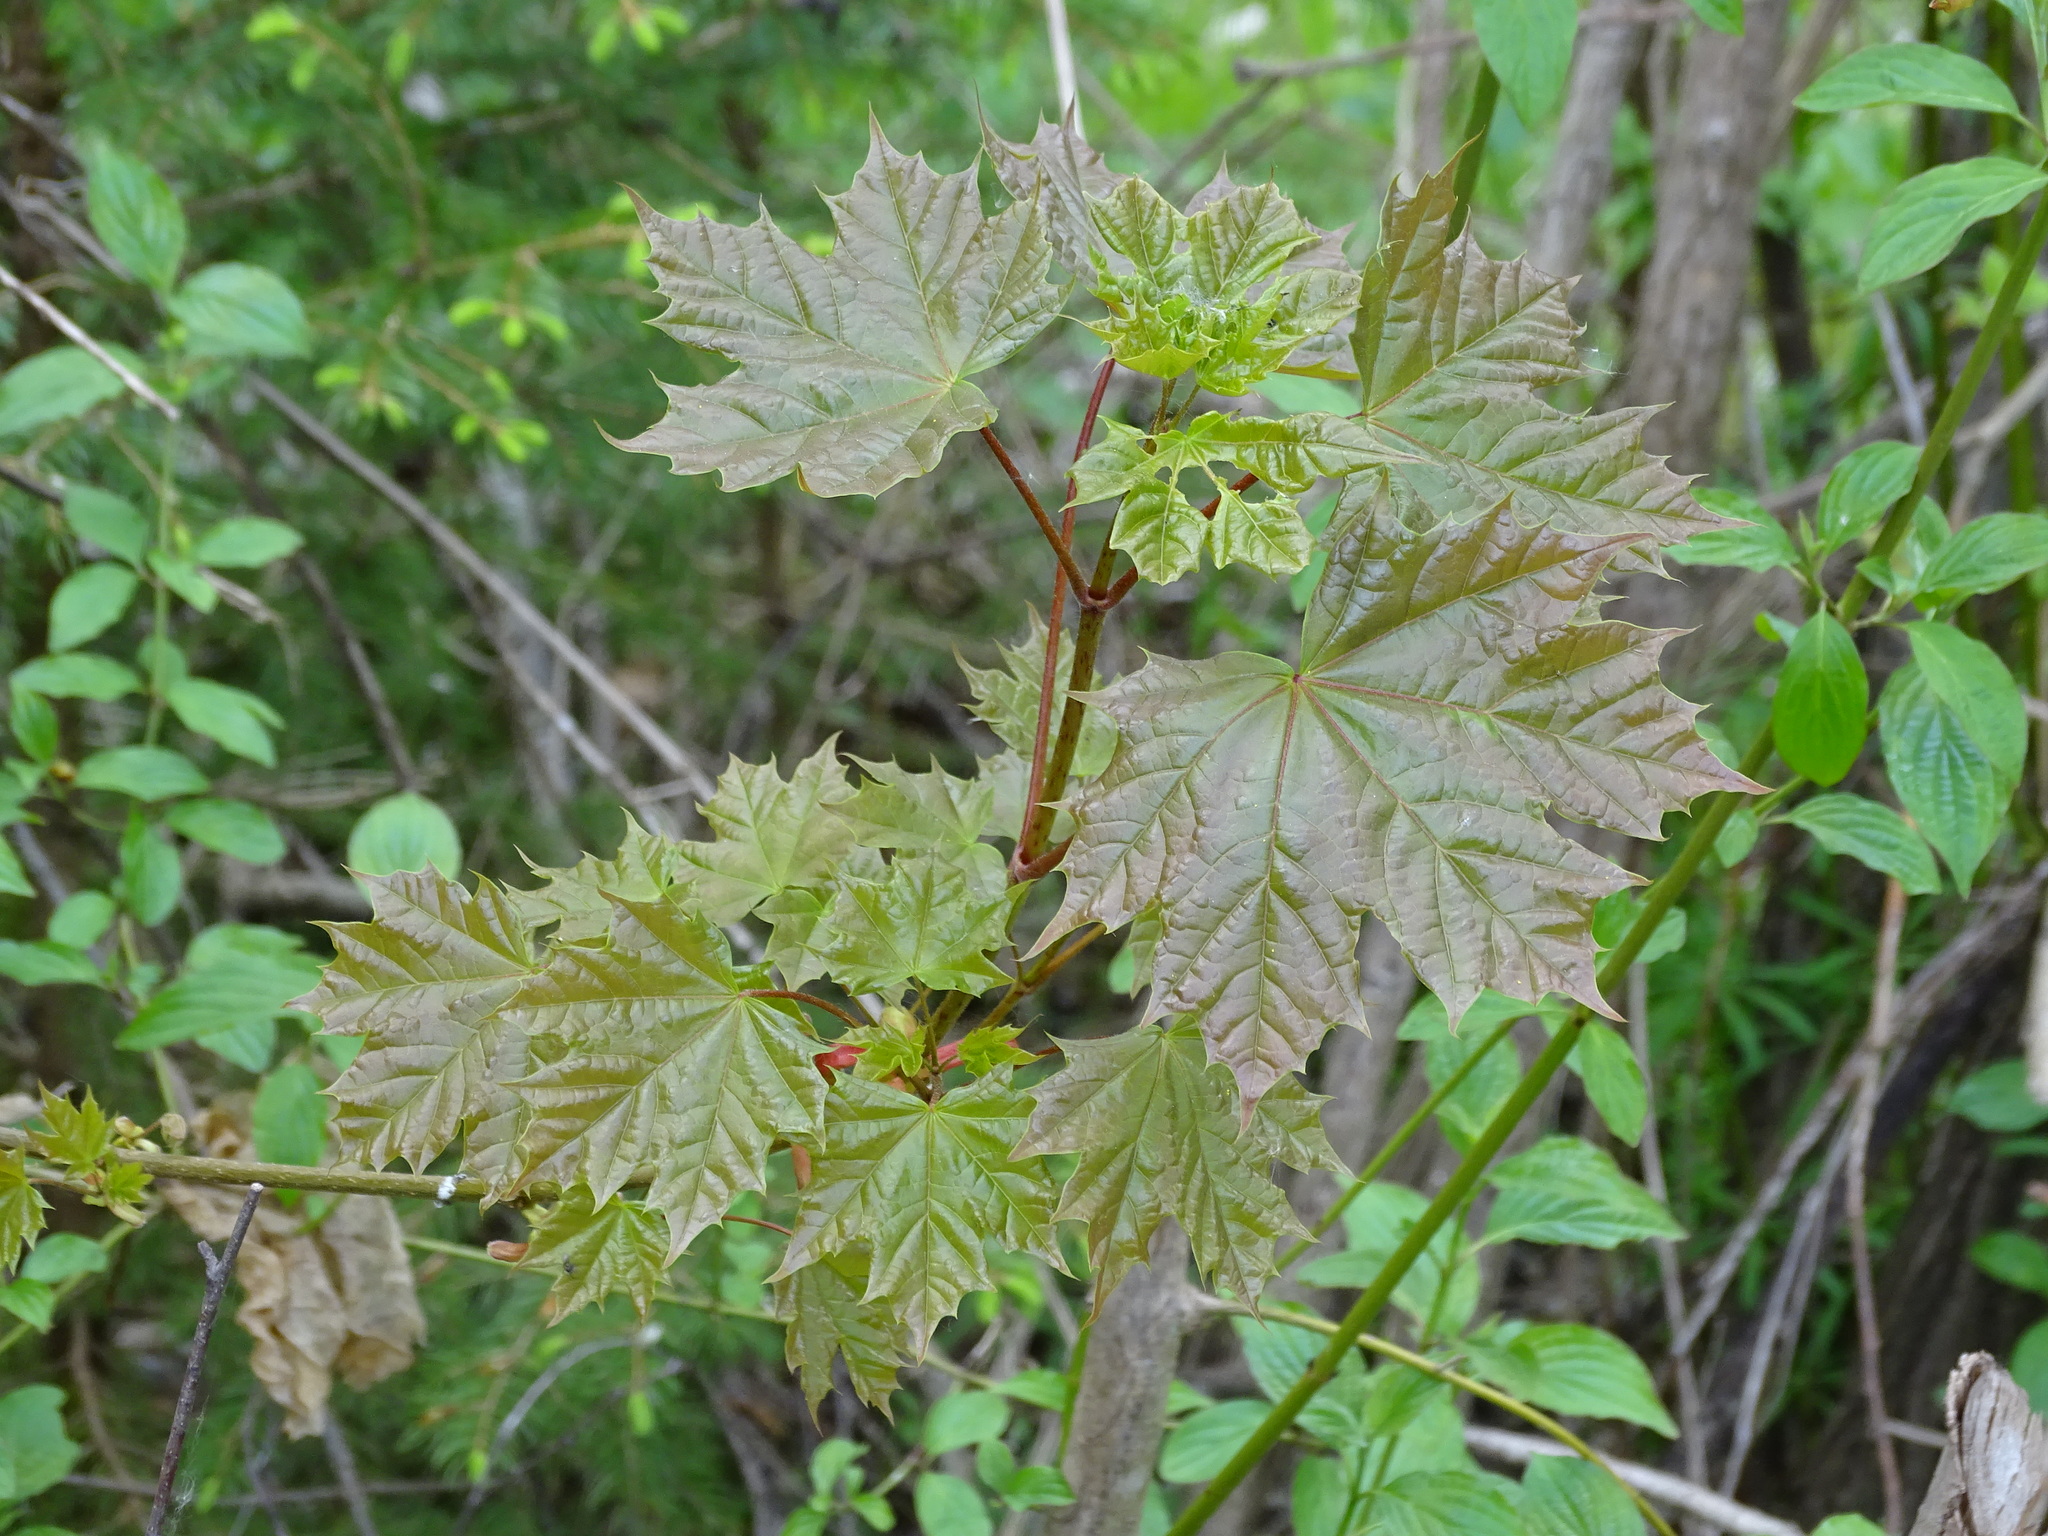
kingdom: Plantae
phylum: Tracheophyta
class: Magnoliopsida
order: Sapindales
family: Sapindaceae
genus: Acer
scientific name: Acer platanoides
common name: Norway maple
